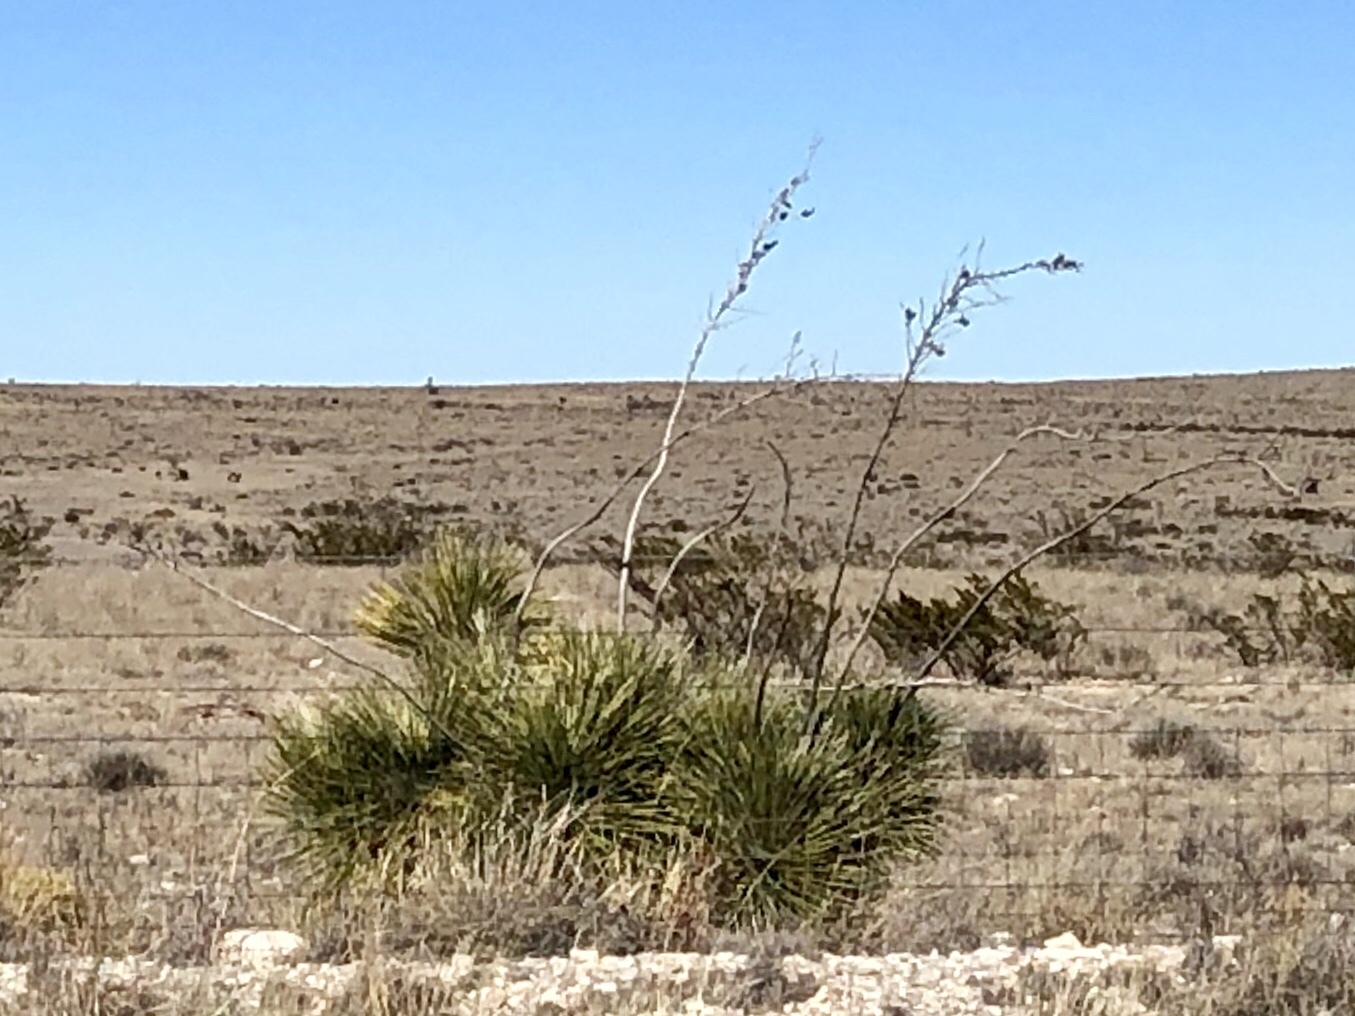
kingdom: Plantae
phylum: Tracheophyta
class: Liliopsida
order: Asparagales
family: Asparagaceae
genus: Yucca
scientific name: Yucca elata
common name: Palmella
